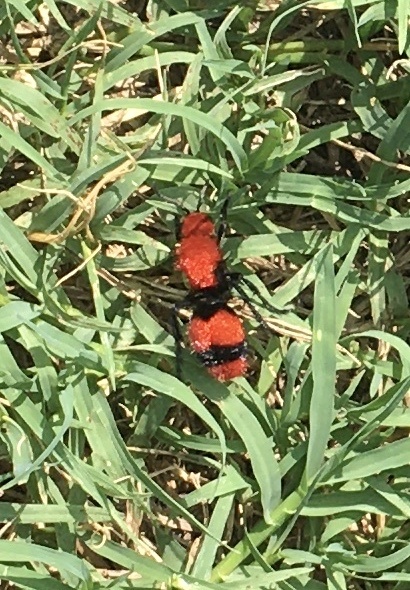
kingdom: Animalia
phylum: Arthropoda
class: Insecta
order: Hymenoptera
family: Mutillidae
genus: Dasymutilla
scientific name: Dasymutilla occidentalis
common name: Common eastern velvet ant
